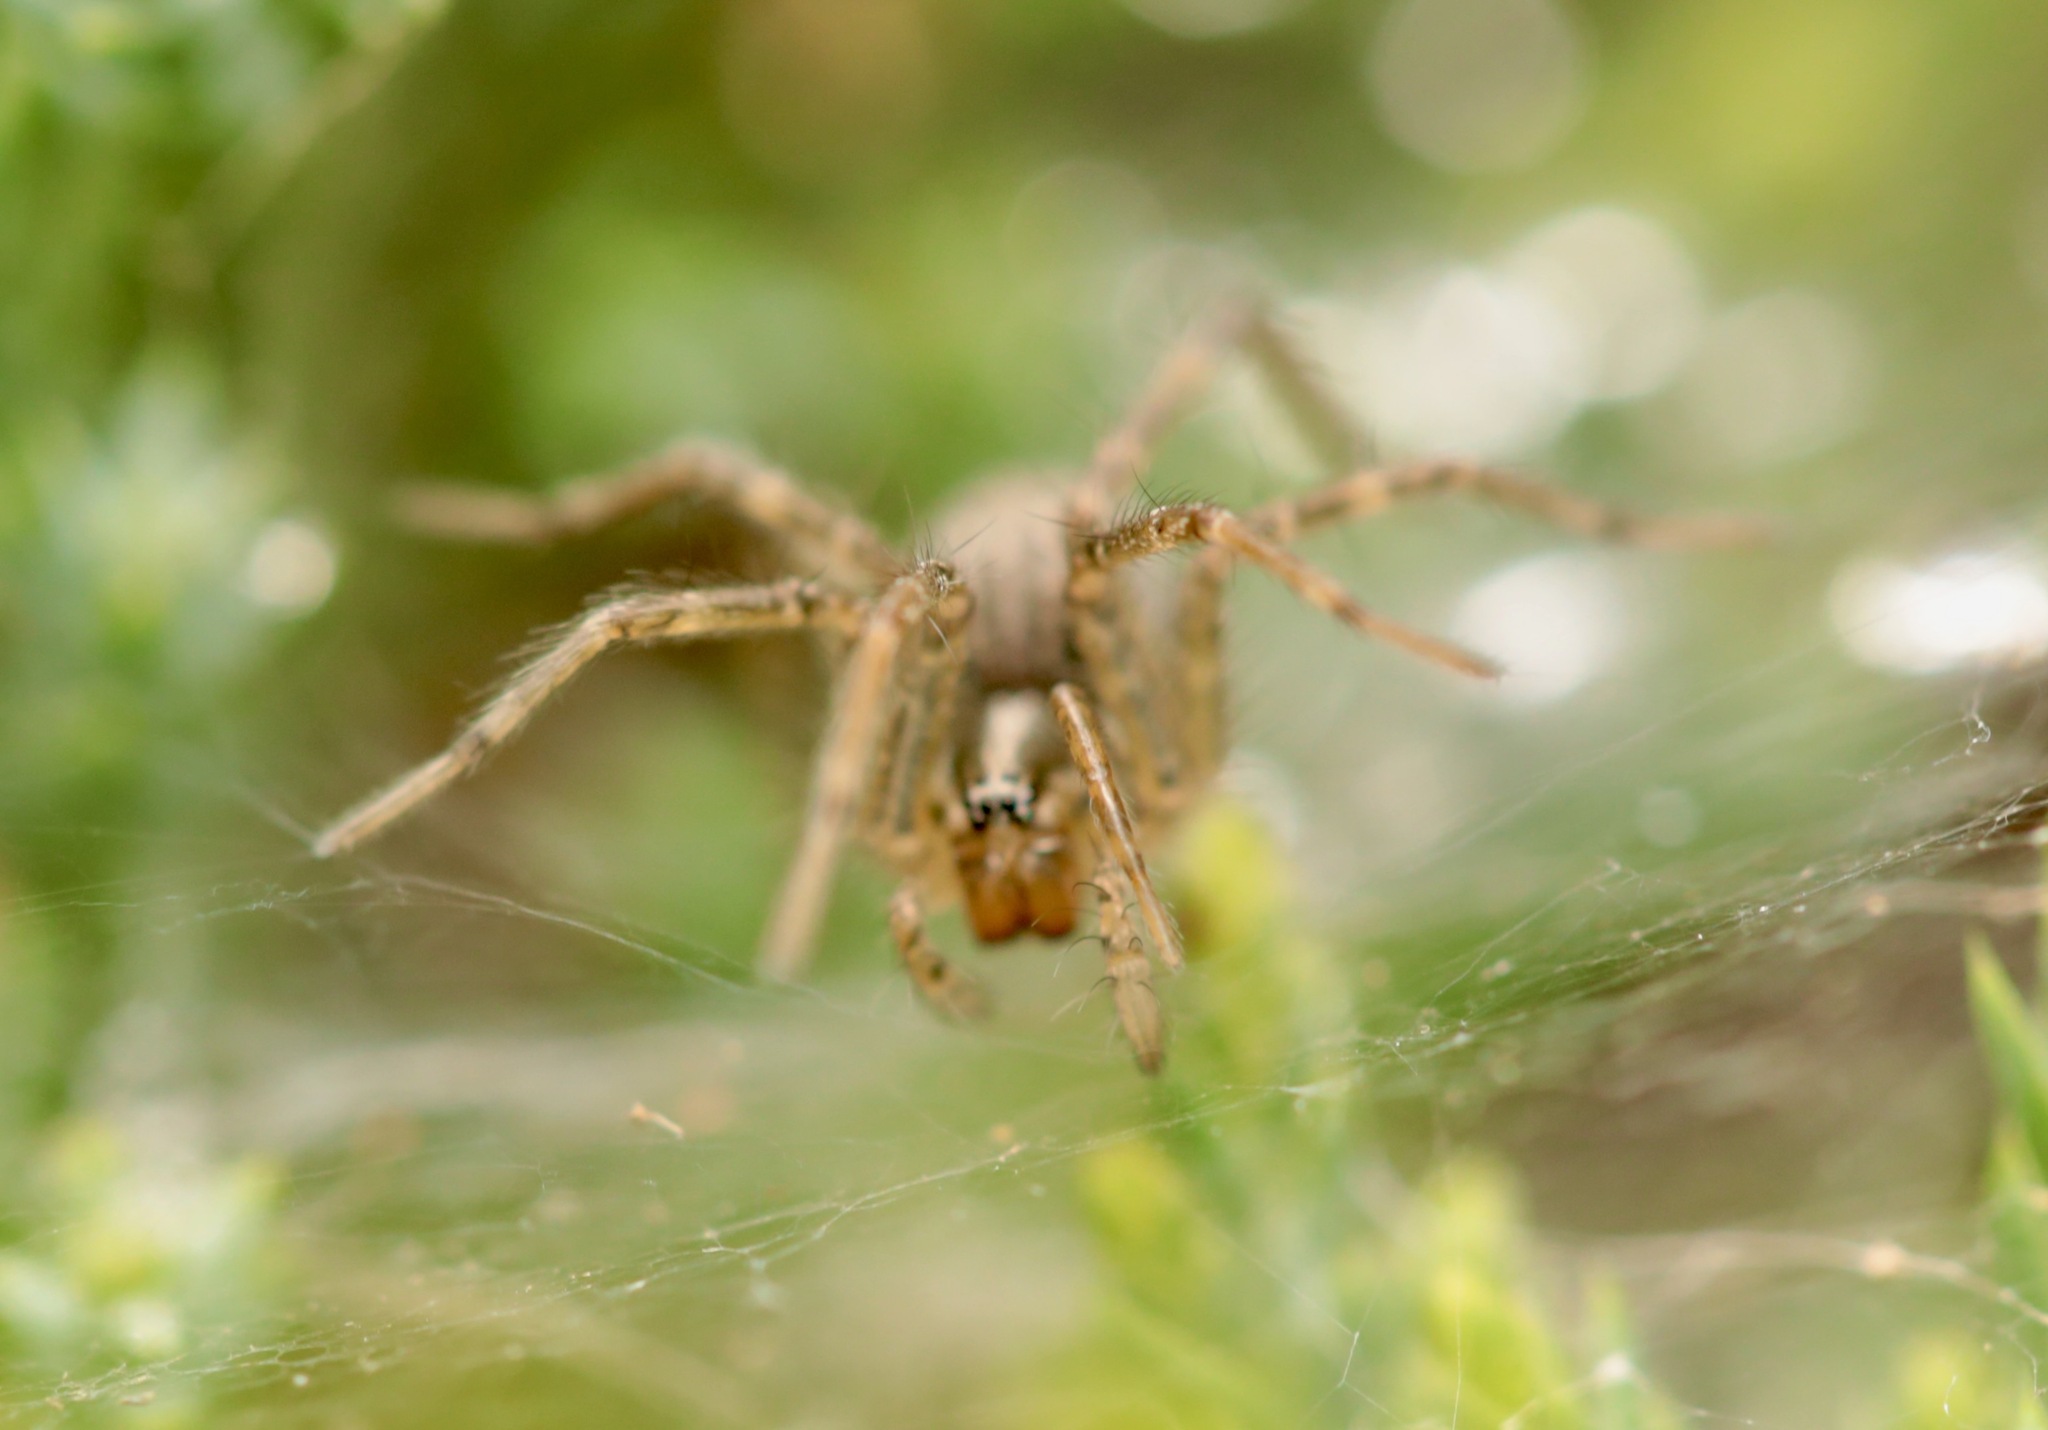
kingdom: Animalia
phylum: Arthropoda
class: Arachnida
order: Araneae
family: Agelenidae
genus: Agelenopsis
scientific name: Agelenopsis
